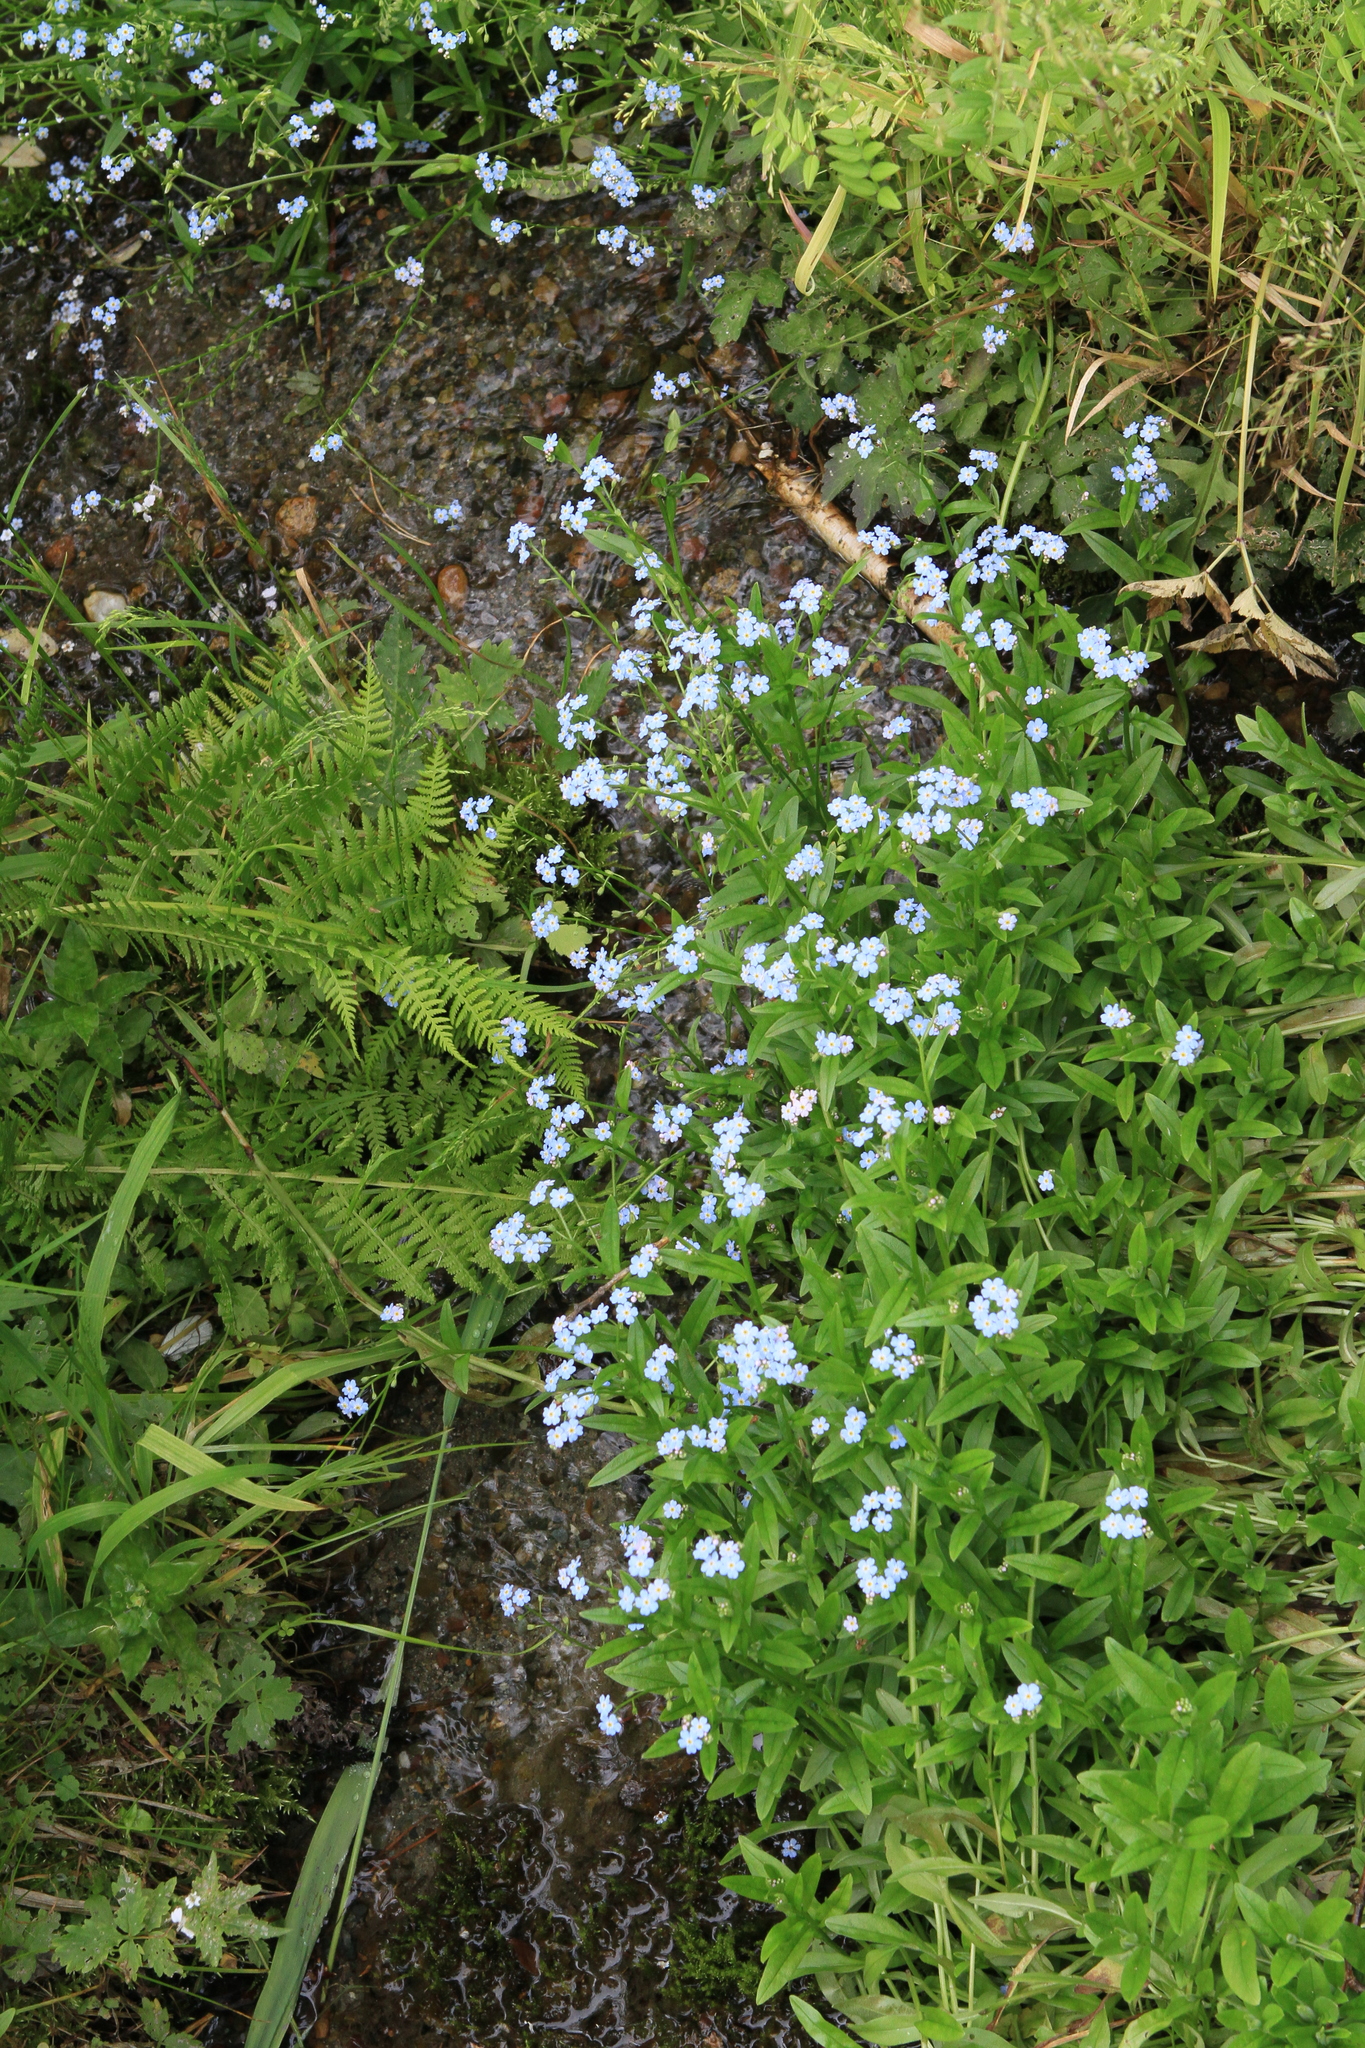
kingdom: Plantae
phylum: Tracheophyta
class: Magnoliopsida
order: Boraginales
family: Boraginaceae
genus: Myosotis
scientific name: Myosotis scorpioides
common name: Water forget-me-not
